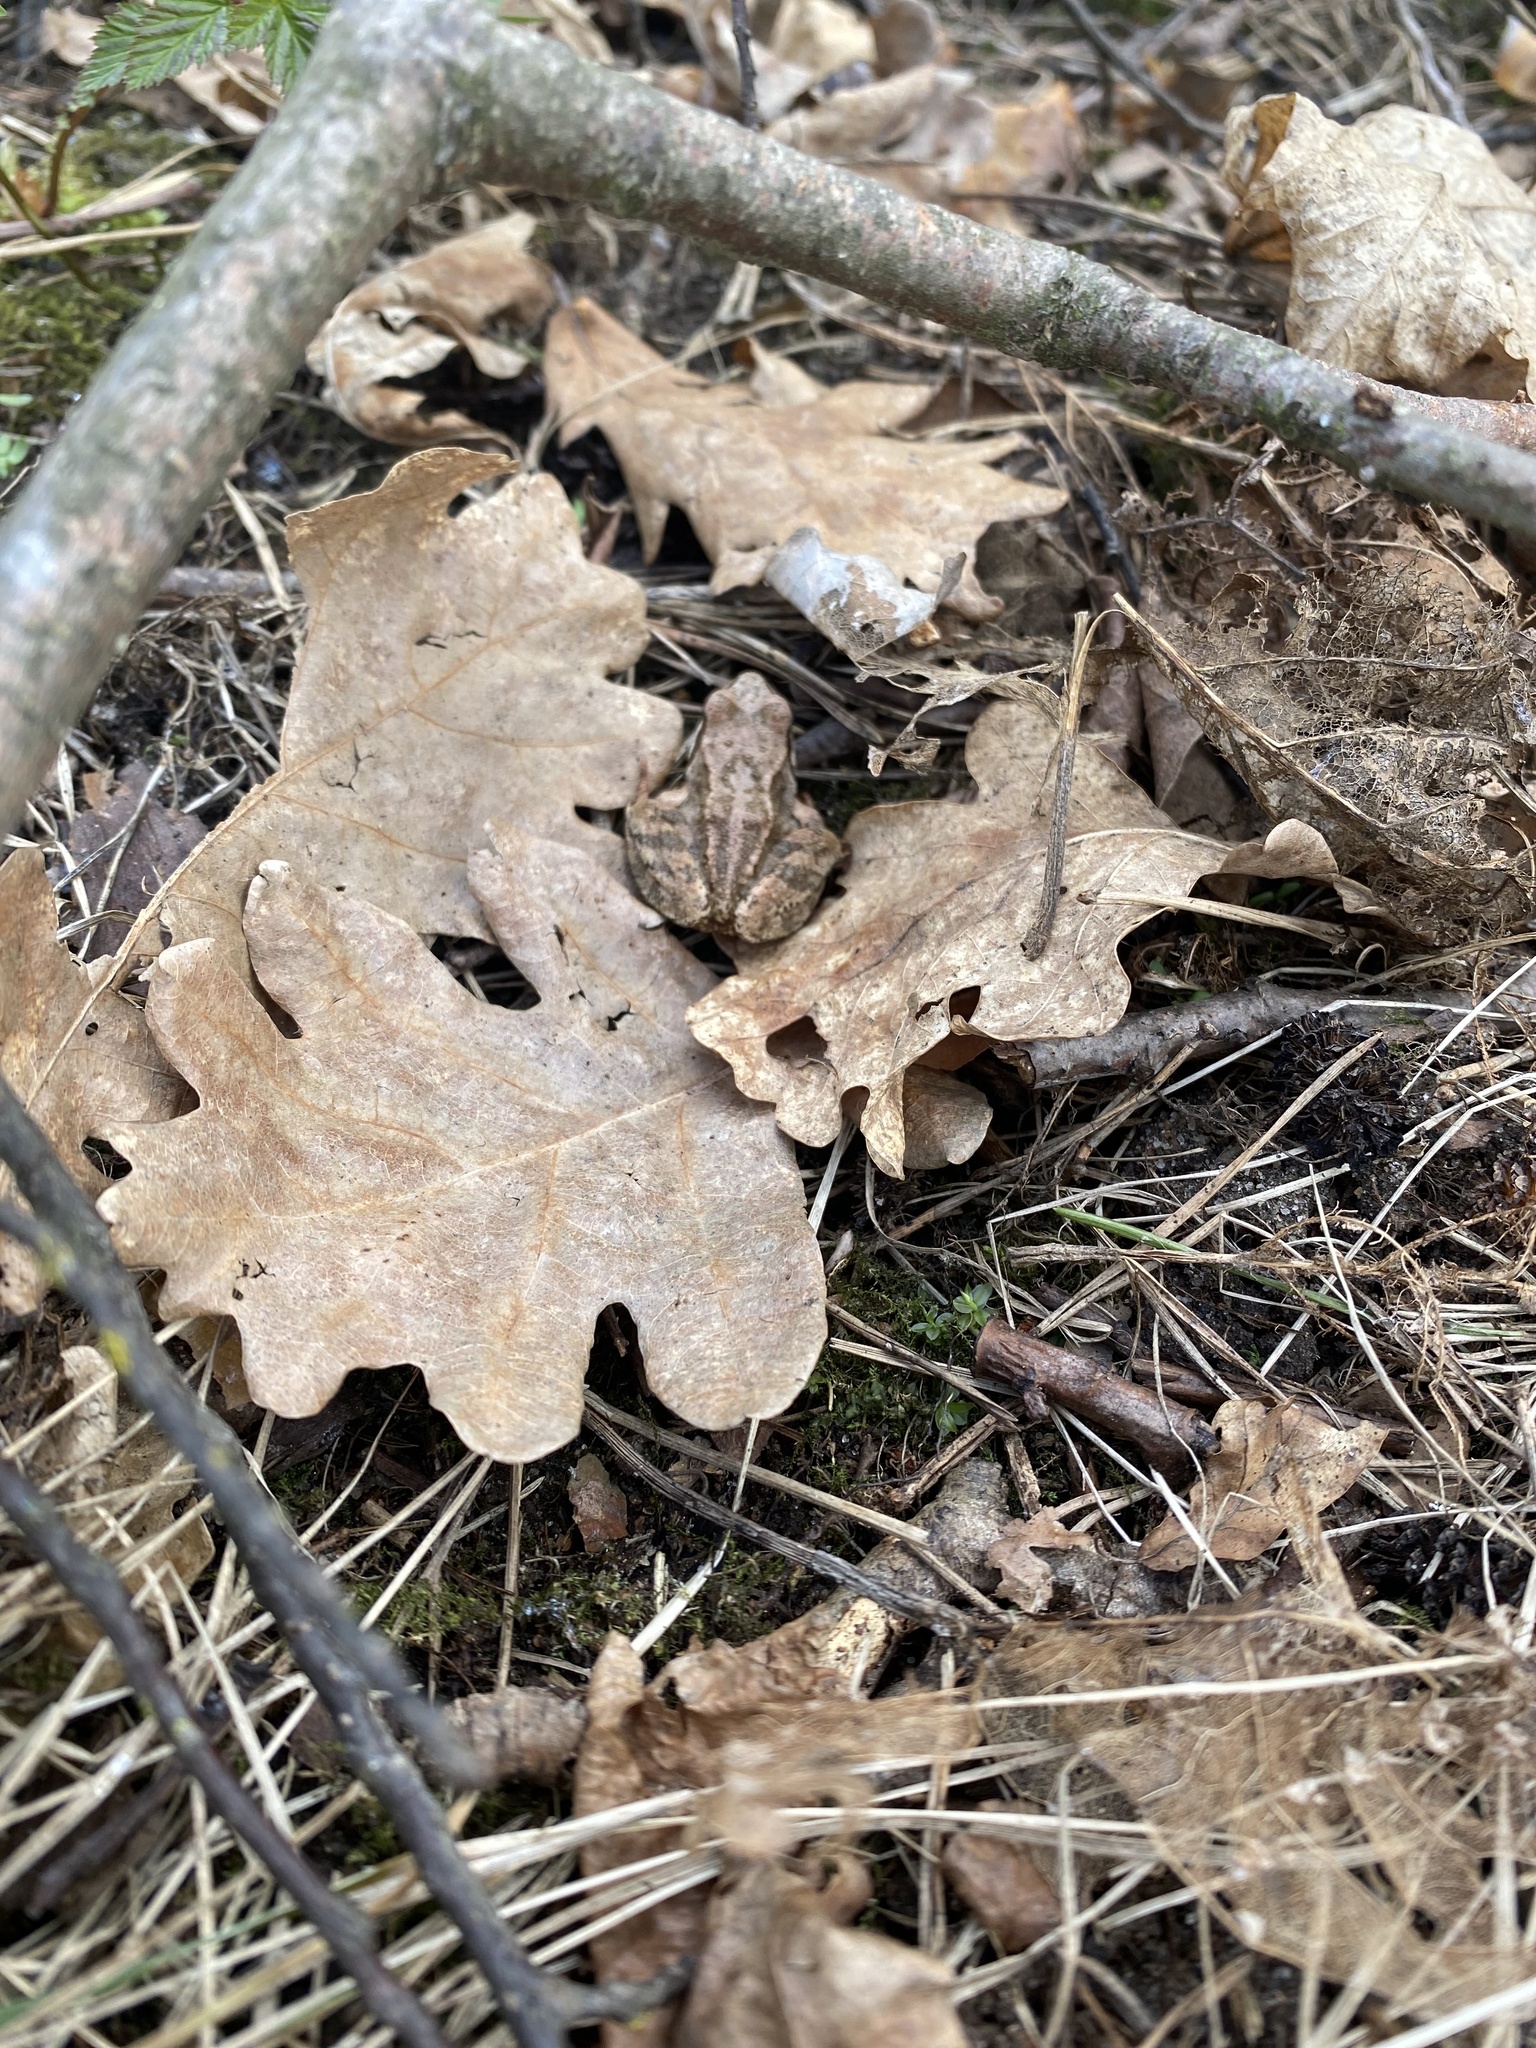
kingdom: Animalia
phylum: Chordata
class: Amphibia
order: Anura
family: Ranidae
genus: Rana
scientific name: Rana temporaria
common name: Common frog
